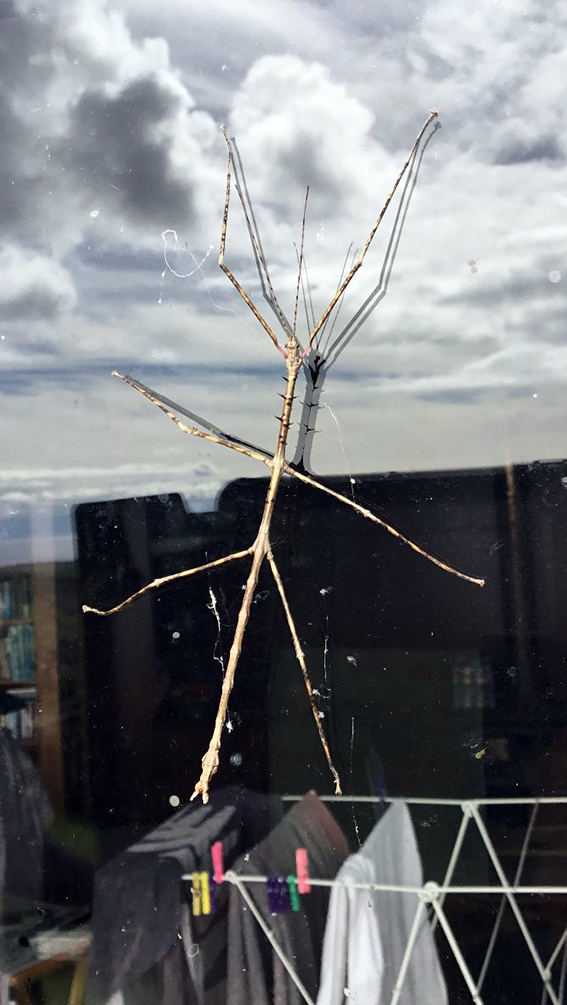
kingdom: Animalia
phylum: Arthropoda
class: Insecta
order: Phasmida
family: Phasmatidae
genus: Argosarchus
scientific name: Argosarchus horridus
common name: Bristly stick insect
